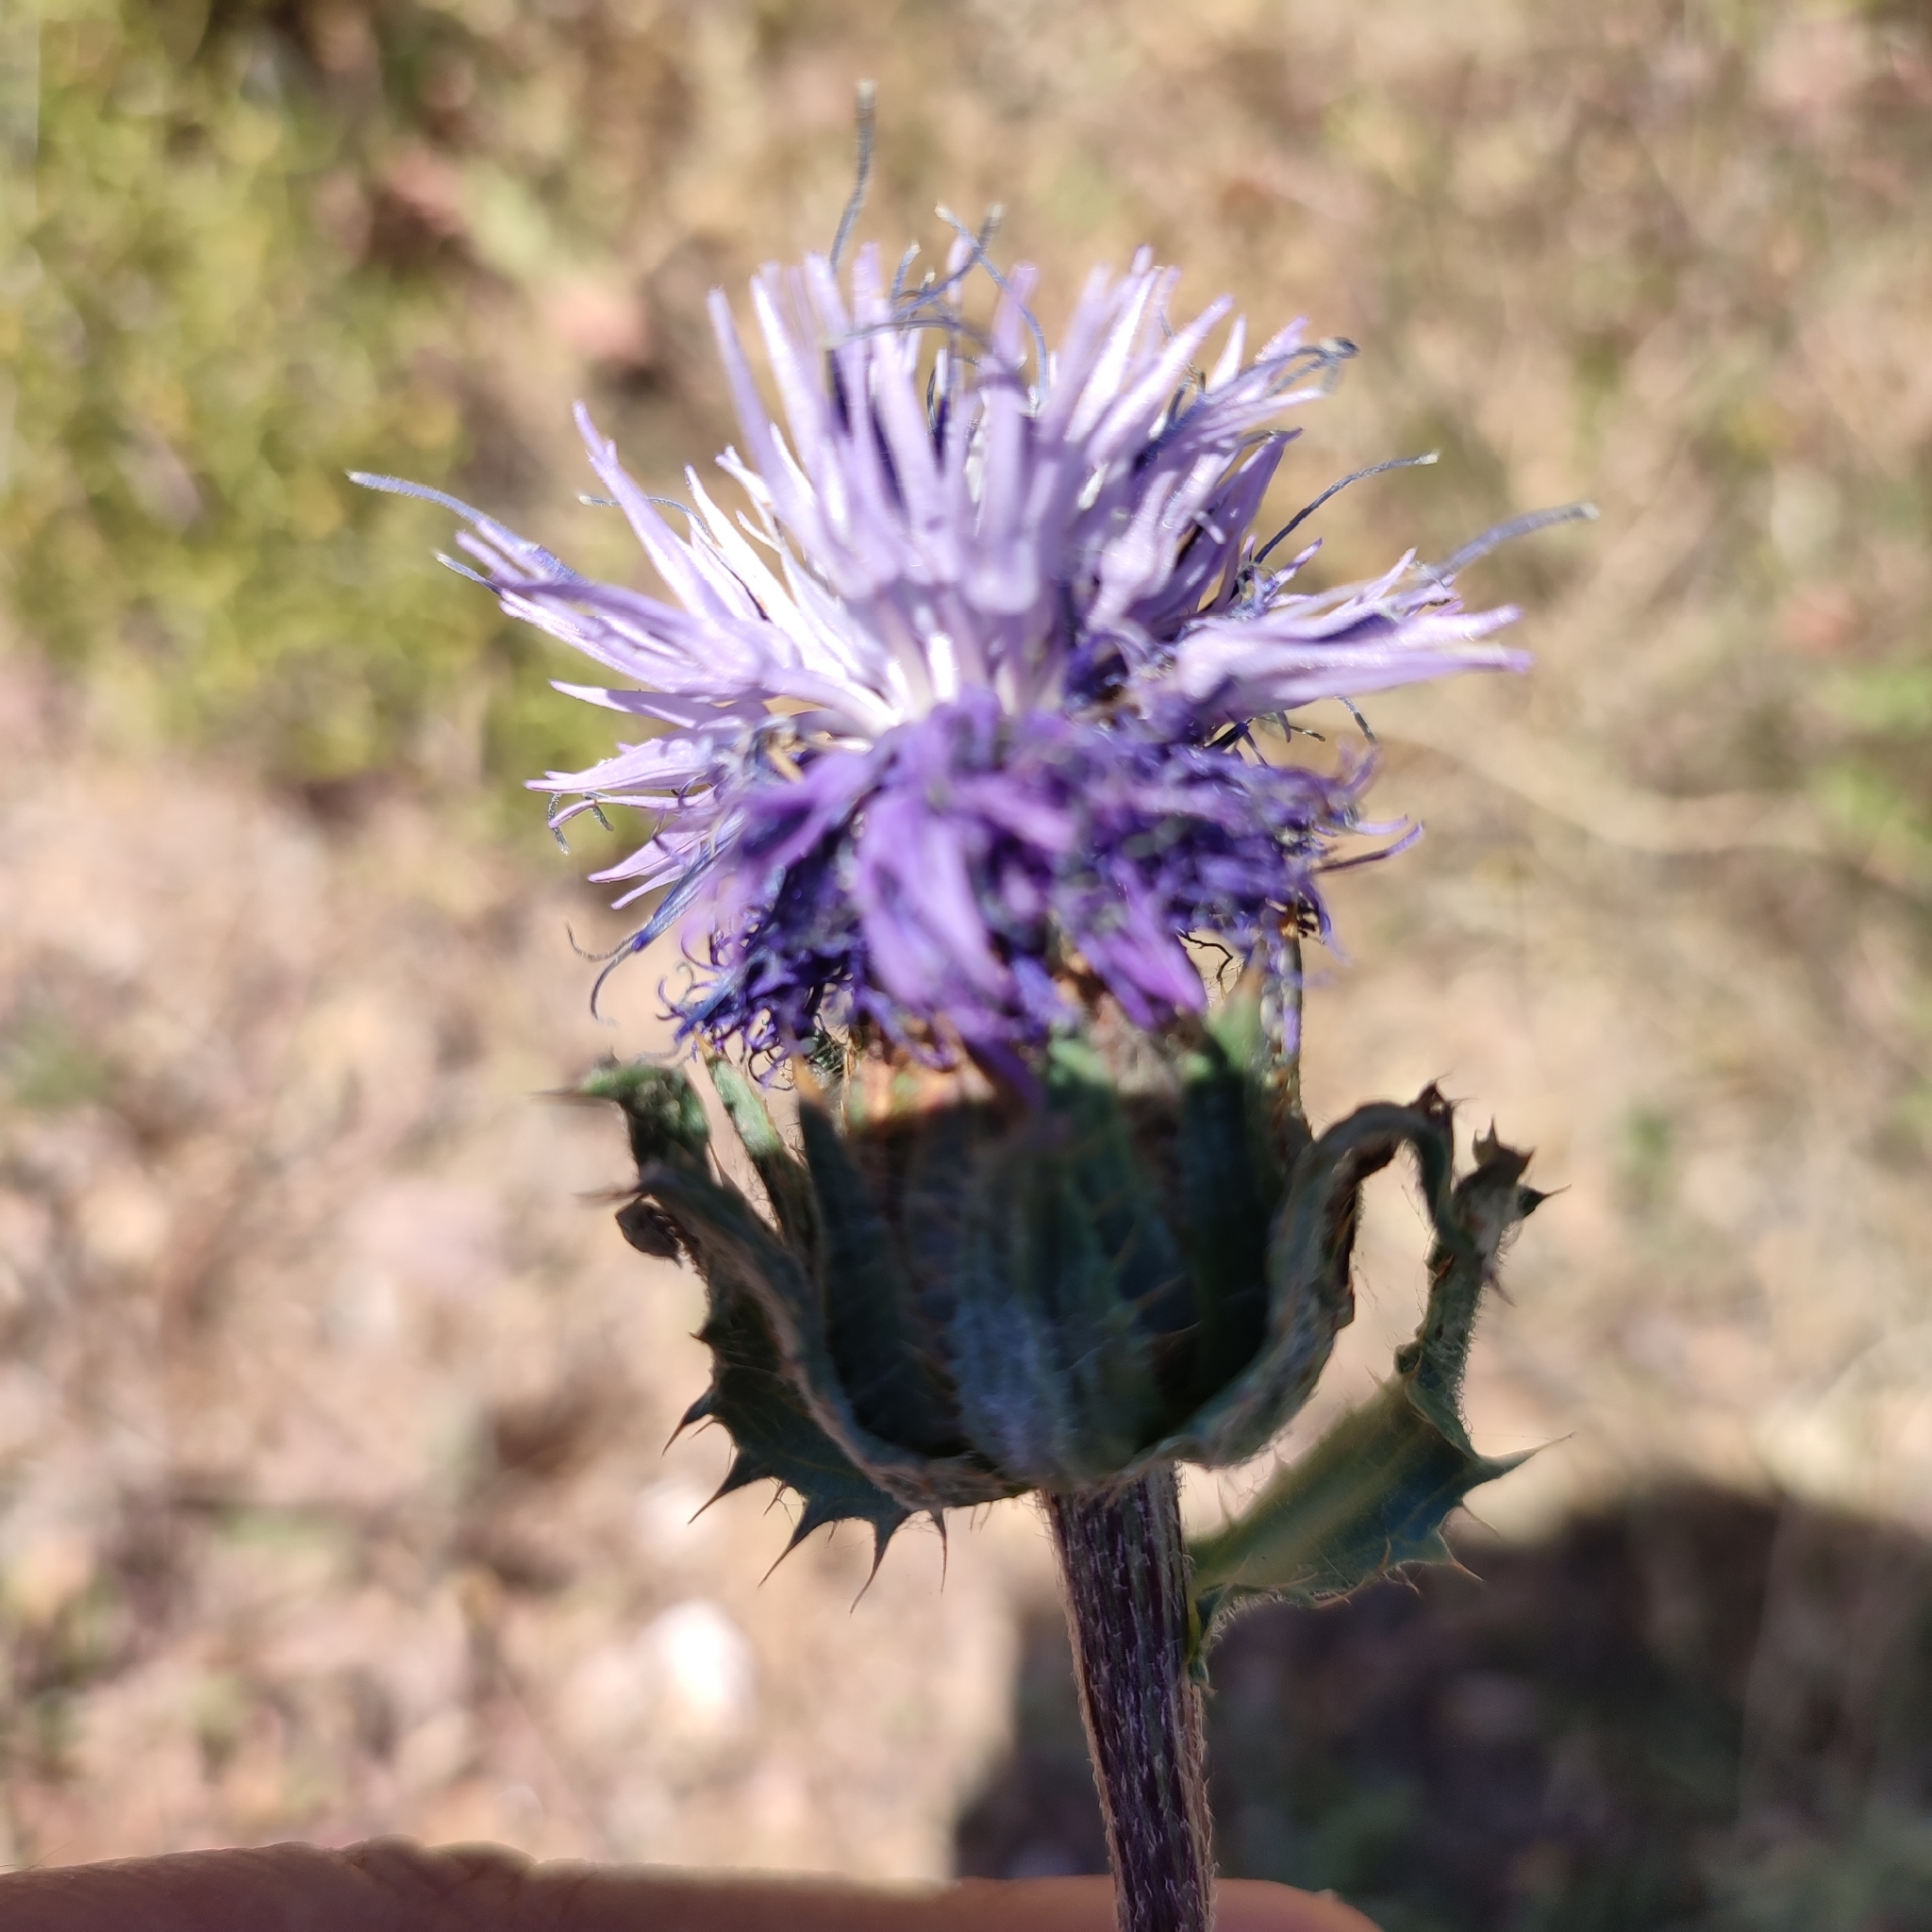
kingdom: Plantae
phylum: Tracheophyta
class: Magnoliopsida
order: Asterales
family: Asteraceae
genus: Carduncellus
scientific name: Carduncellus caeruleus
